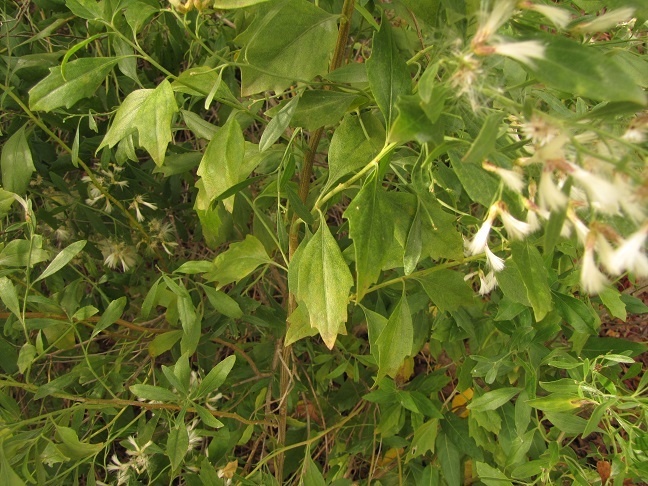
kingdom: Plantae
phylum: Tracheophyta
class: Magnoliopsida
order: Asterales
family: Asteraceae
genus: Baccharis
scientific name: Baccharis halimifolia
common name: Eastern baccharis
